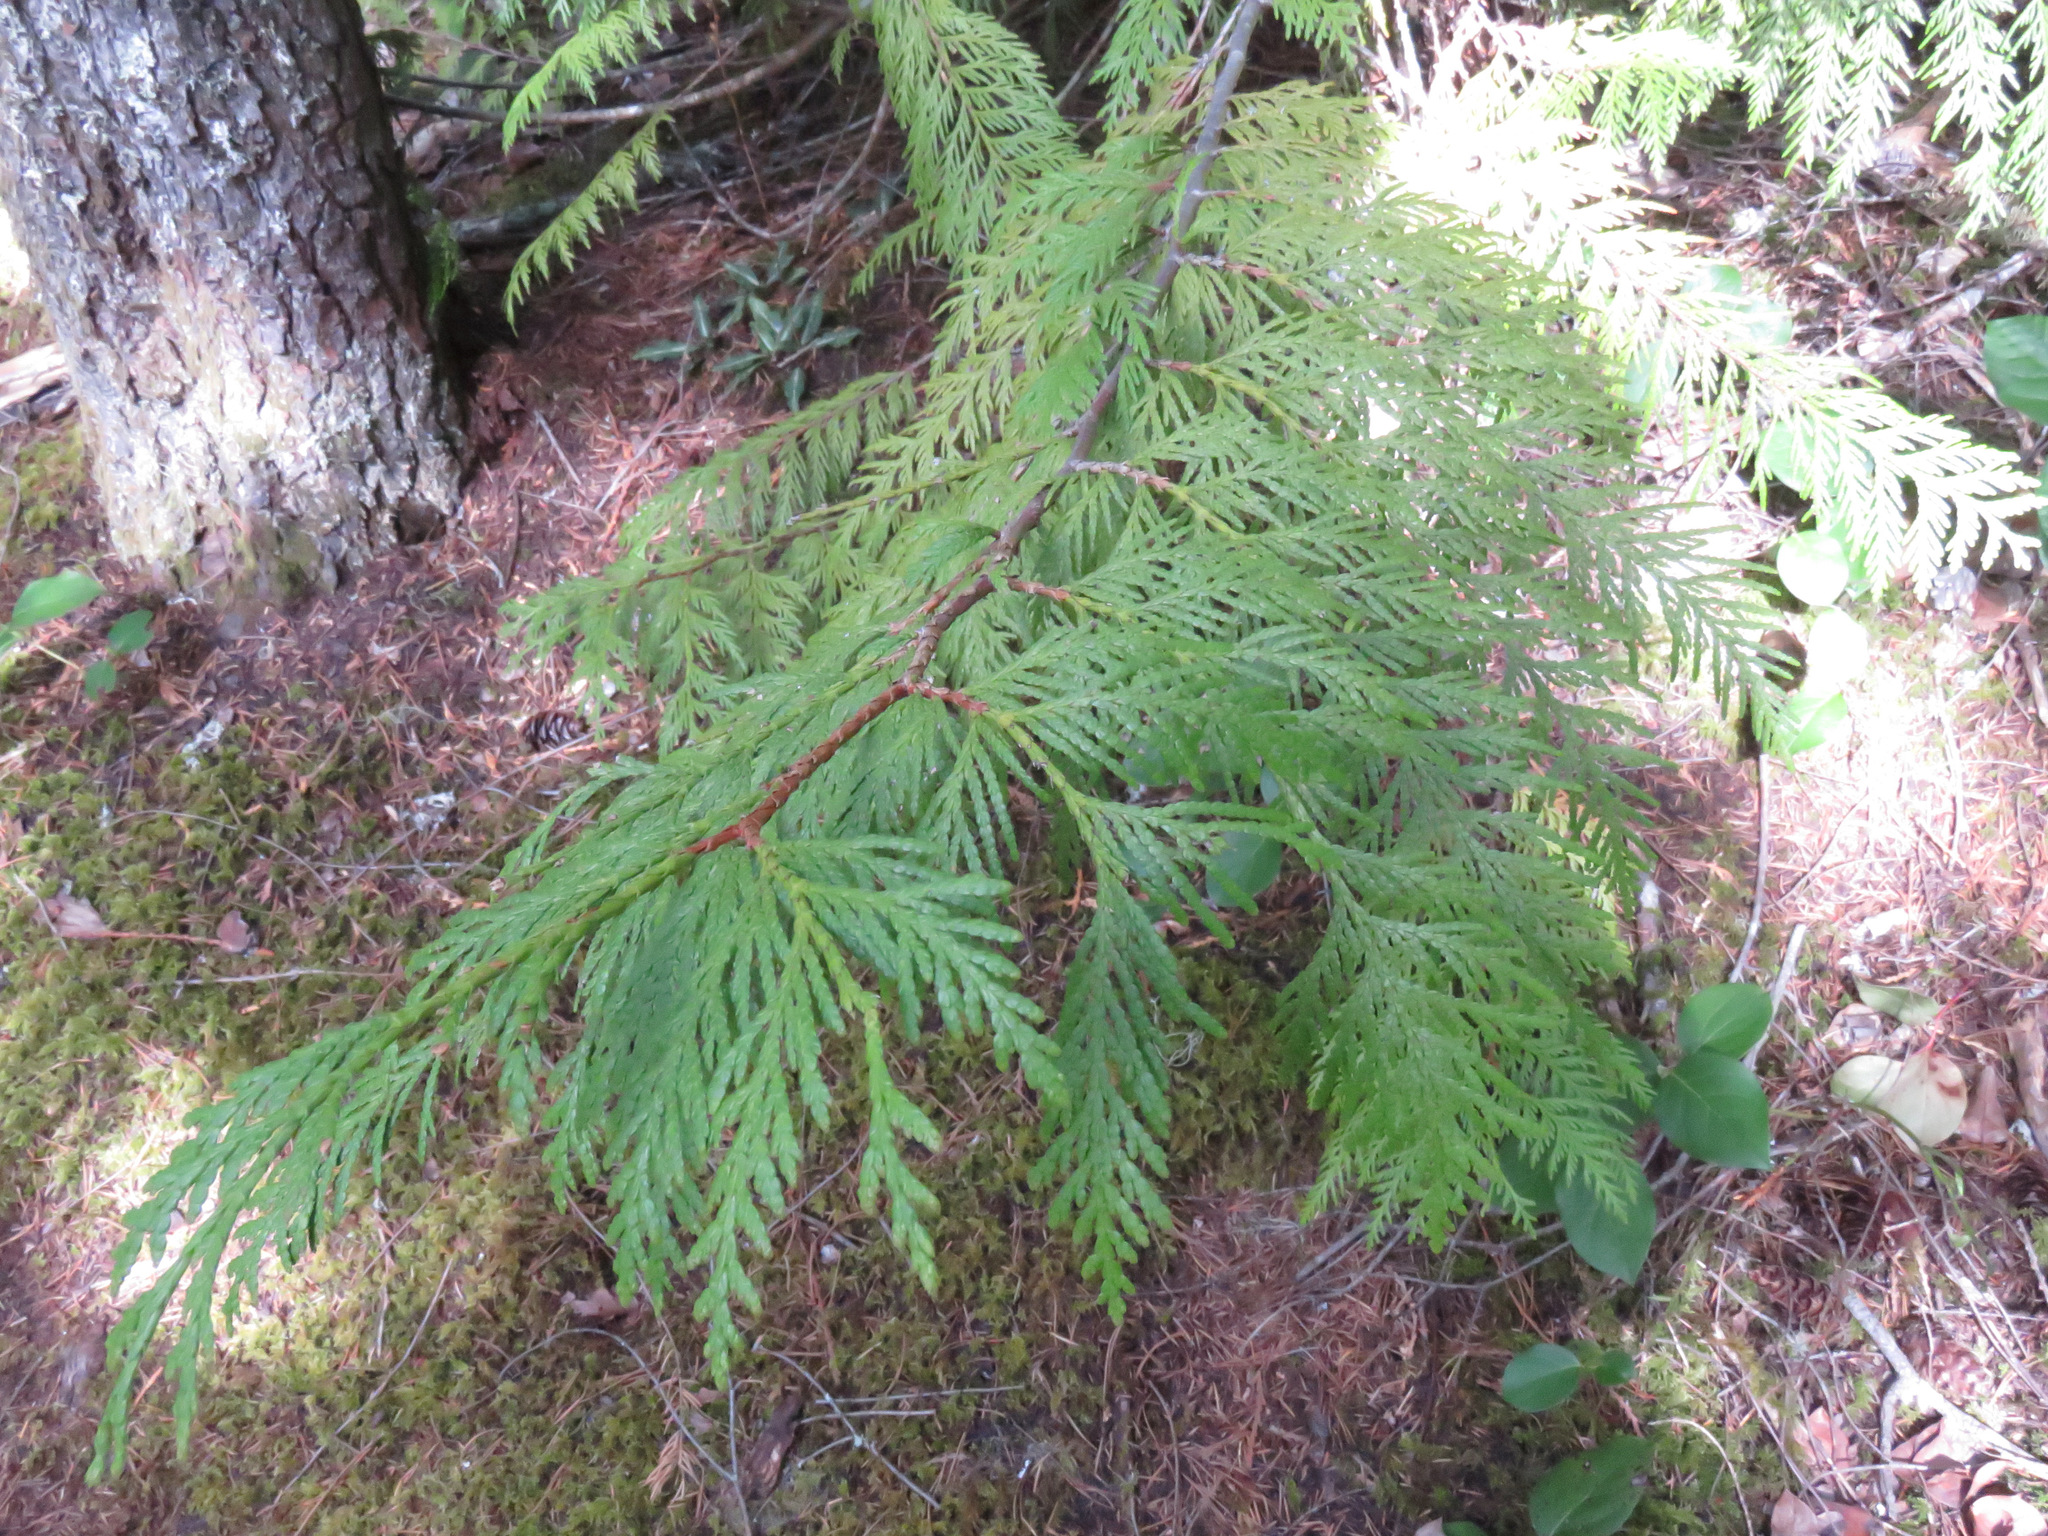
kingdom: Plantae
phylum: Tracheophyta
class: Pinopsida
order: Pinales
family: Cupressaceae
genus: Thuja
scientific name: Thuja plicata
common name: Western red-cedar
